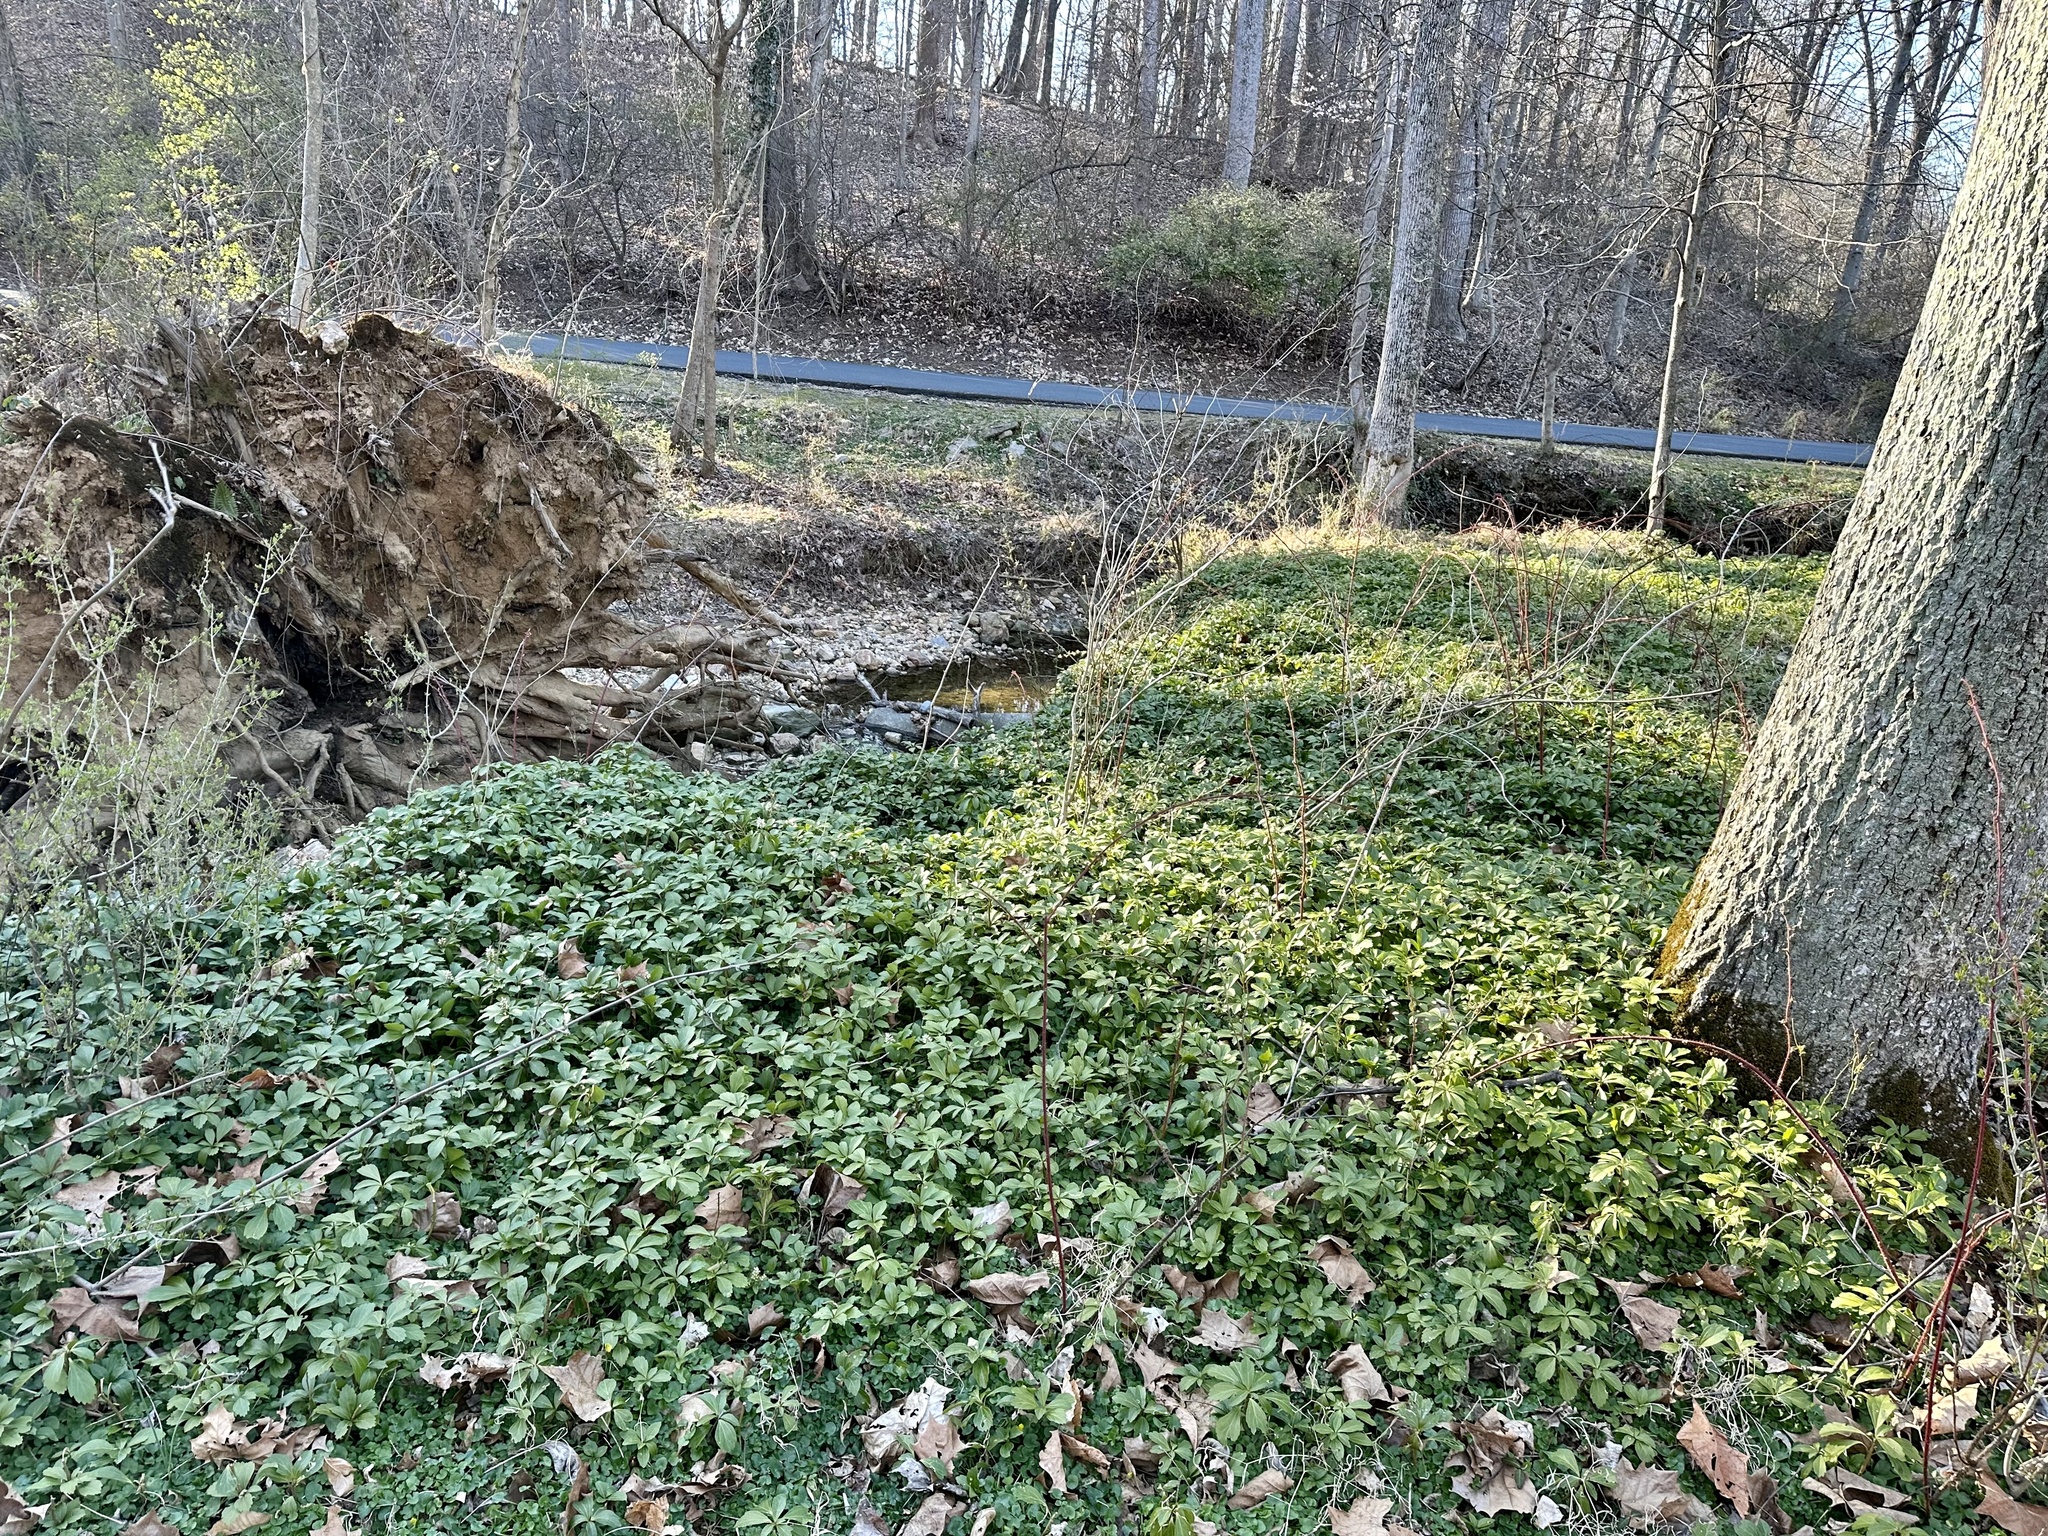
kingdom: Plantae
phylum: Tracheophyta
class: Magnoliopsida
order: Buxales
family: Buxaceae
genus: Pachysandra
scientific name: Pachysandra terminalis
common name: Japanese pachysandra
